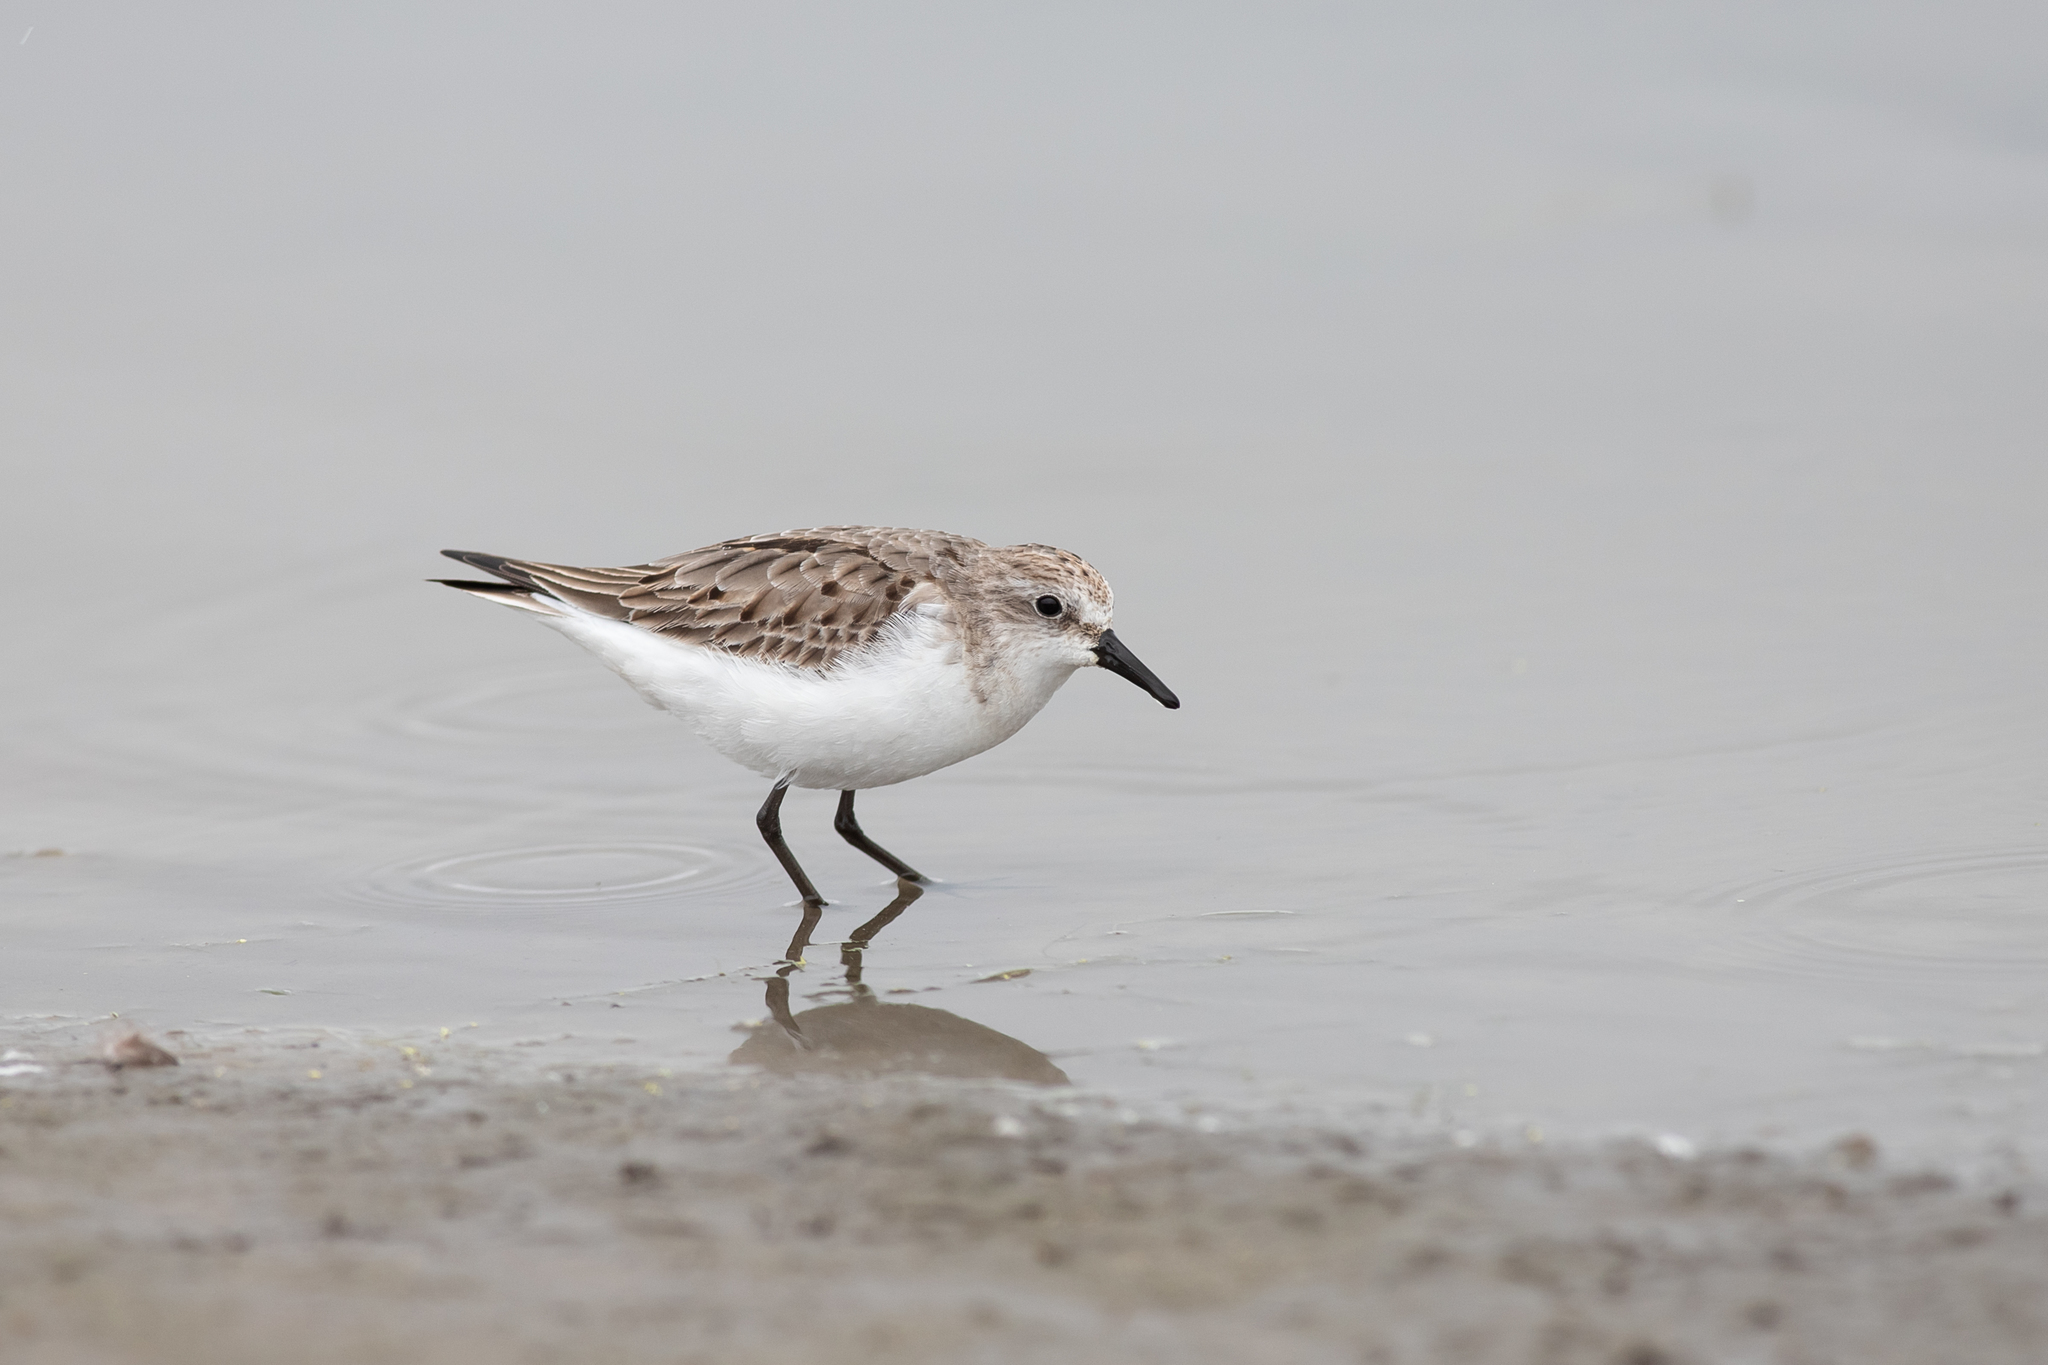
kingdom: Animalia
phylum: Chordata
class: Aves
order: Charadriiformes
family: Scolopacidae
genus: Calidris
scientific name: Calidris ruficollis
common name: Red-necked stint
